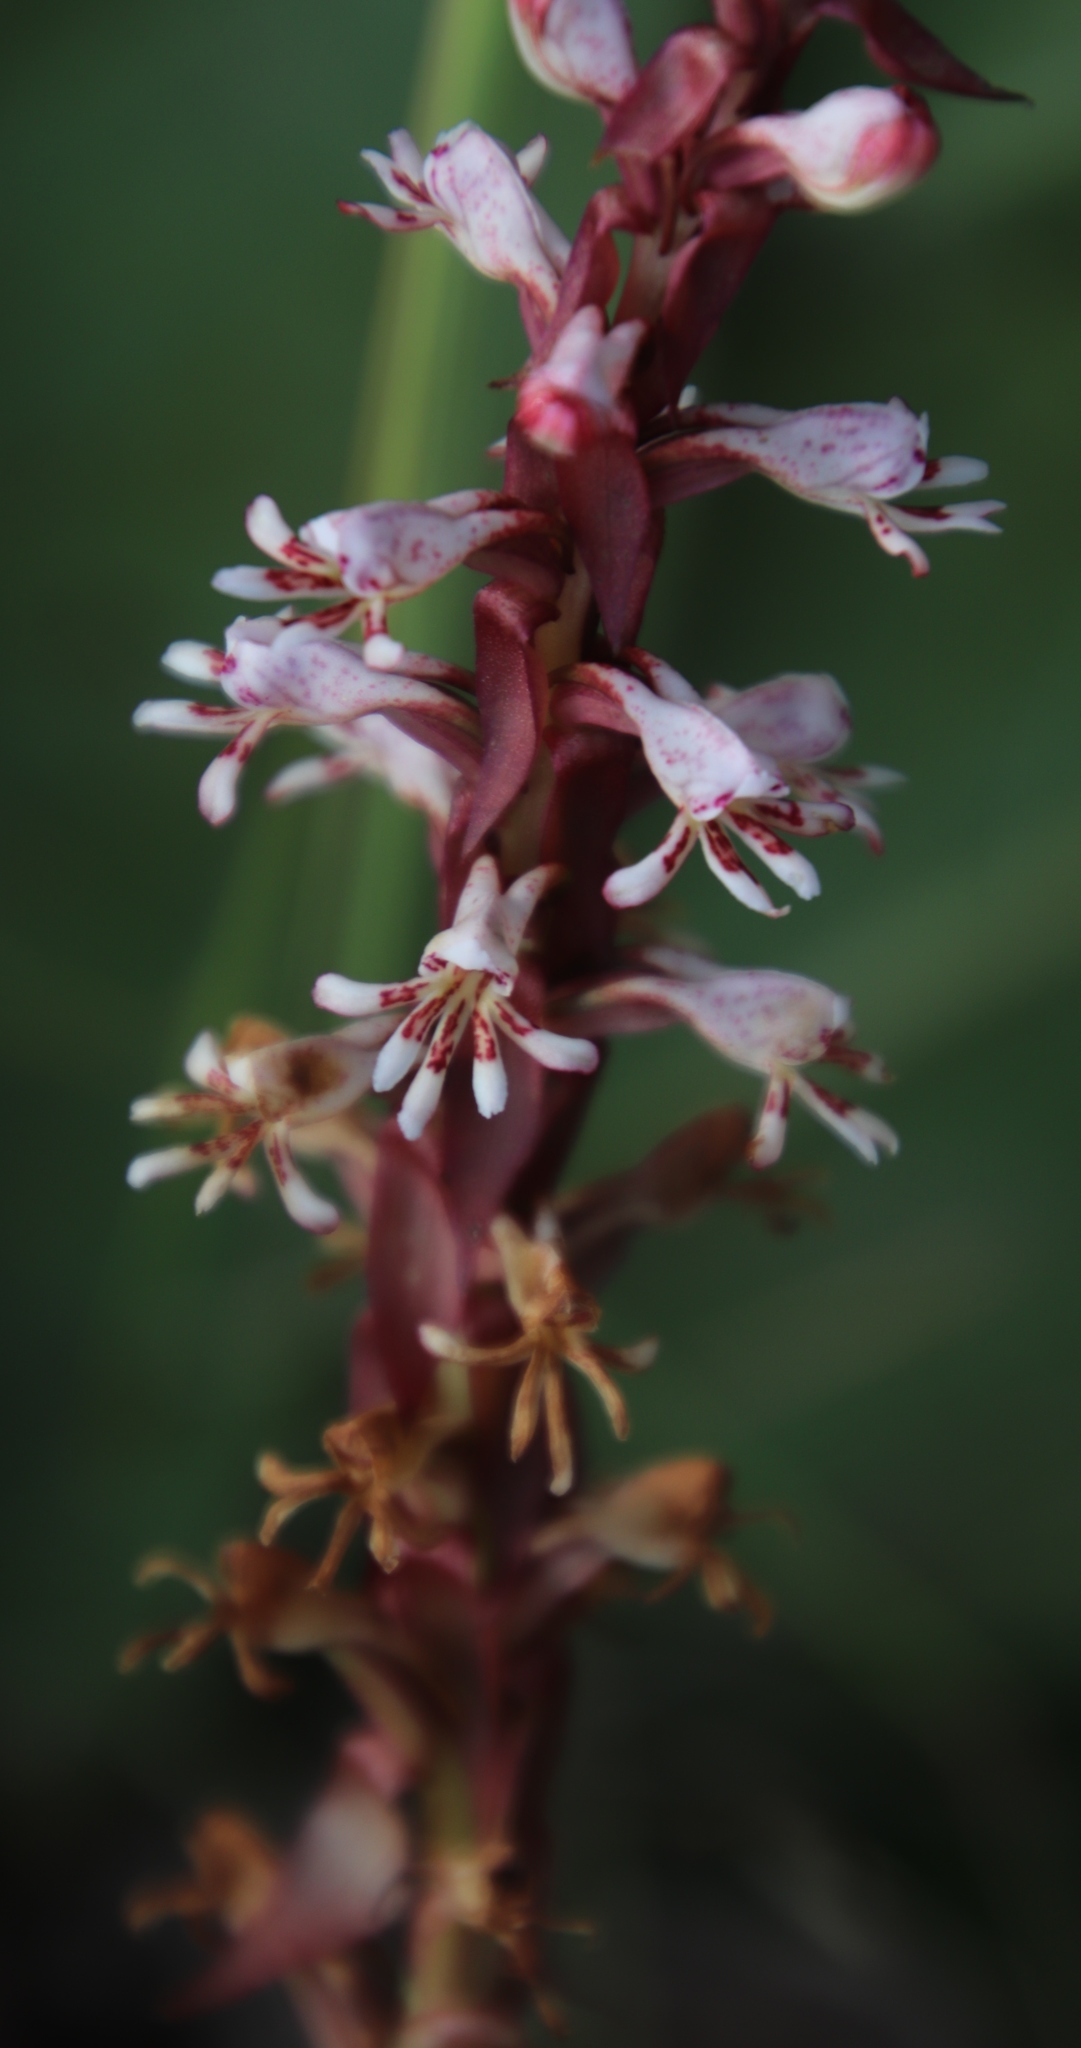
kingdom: Plantae
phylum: Tracheophyta
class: Liliopsida
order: Asparagales
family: Orchidaceae
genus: Satyrium
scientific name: Satyrium cristatum
